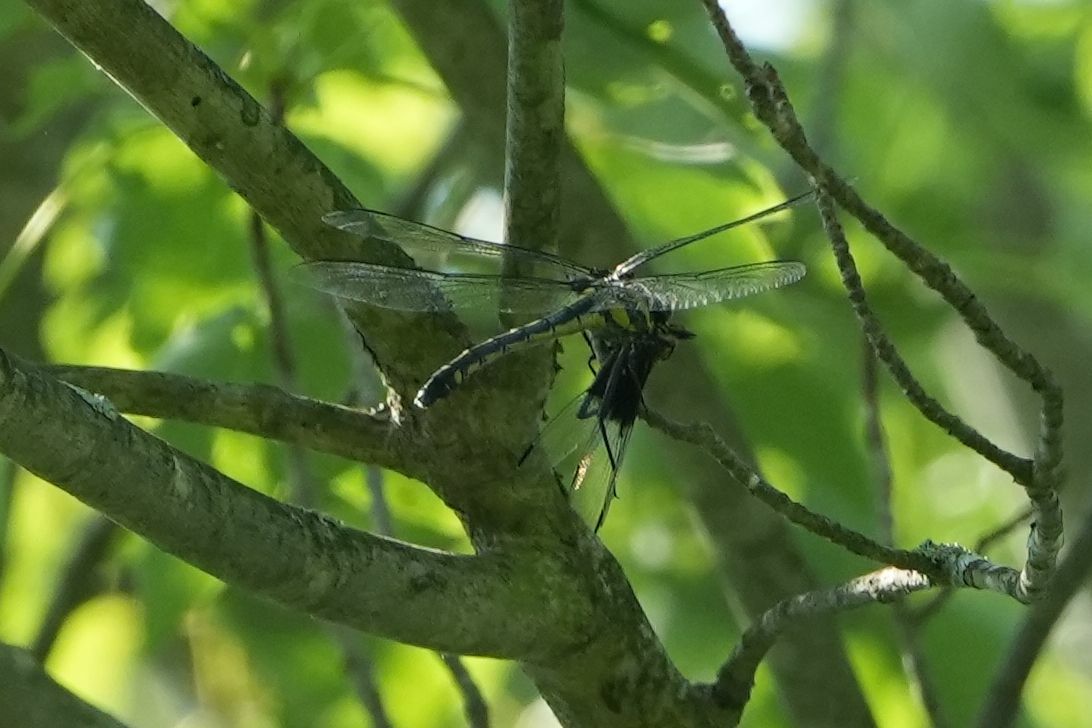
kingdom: Animalia
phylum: Arthropoda
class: Insecta
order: Odonata
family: Gomphidae
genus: Hagenius
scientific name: Hagenius brevistylus
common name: Dragonhunter
